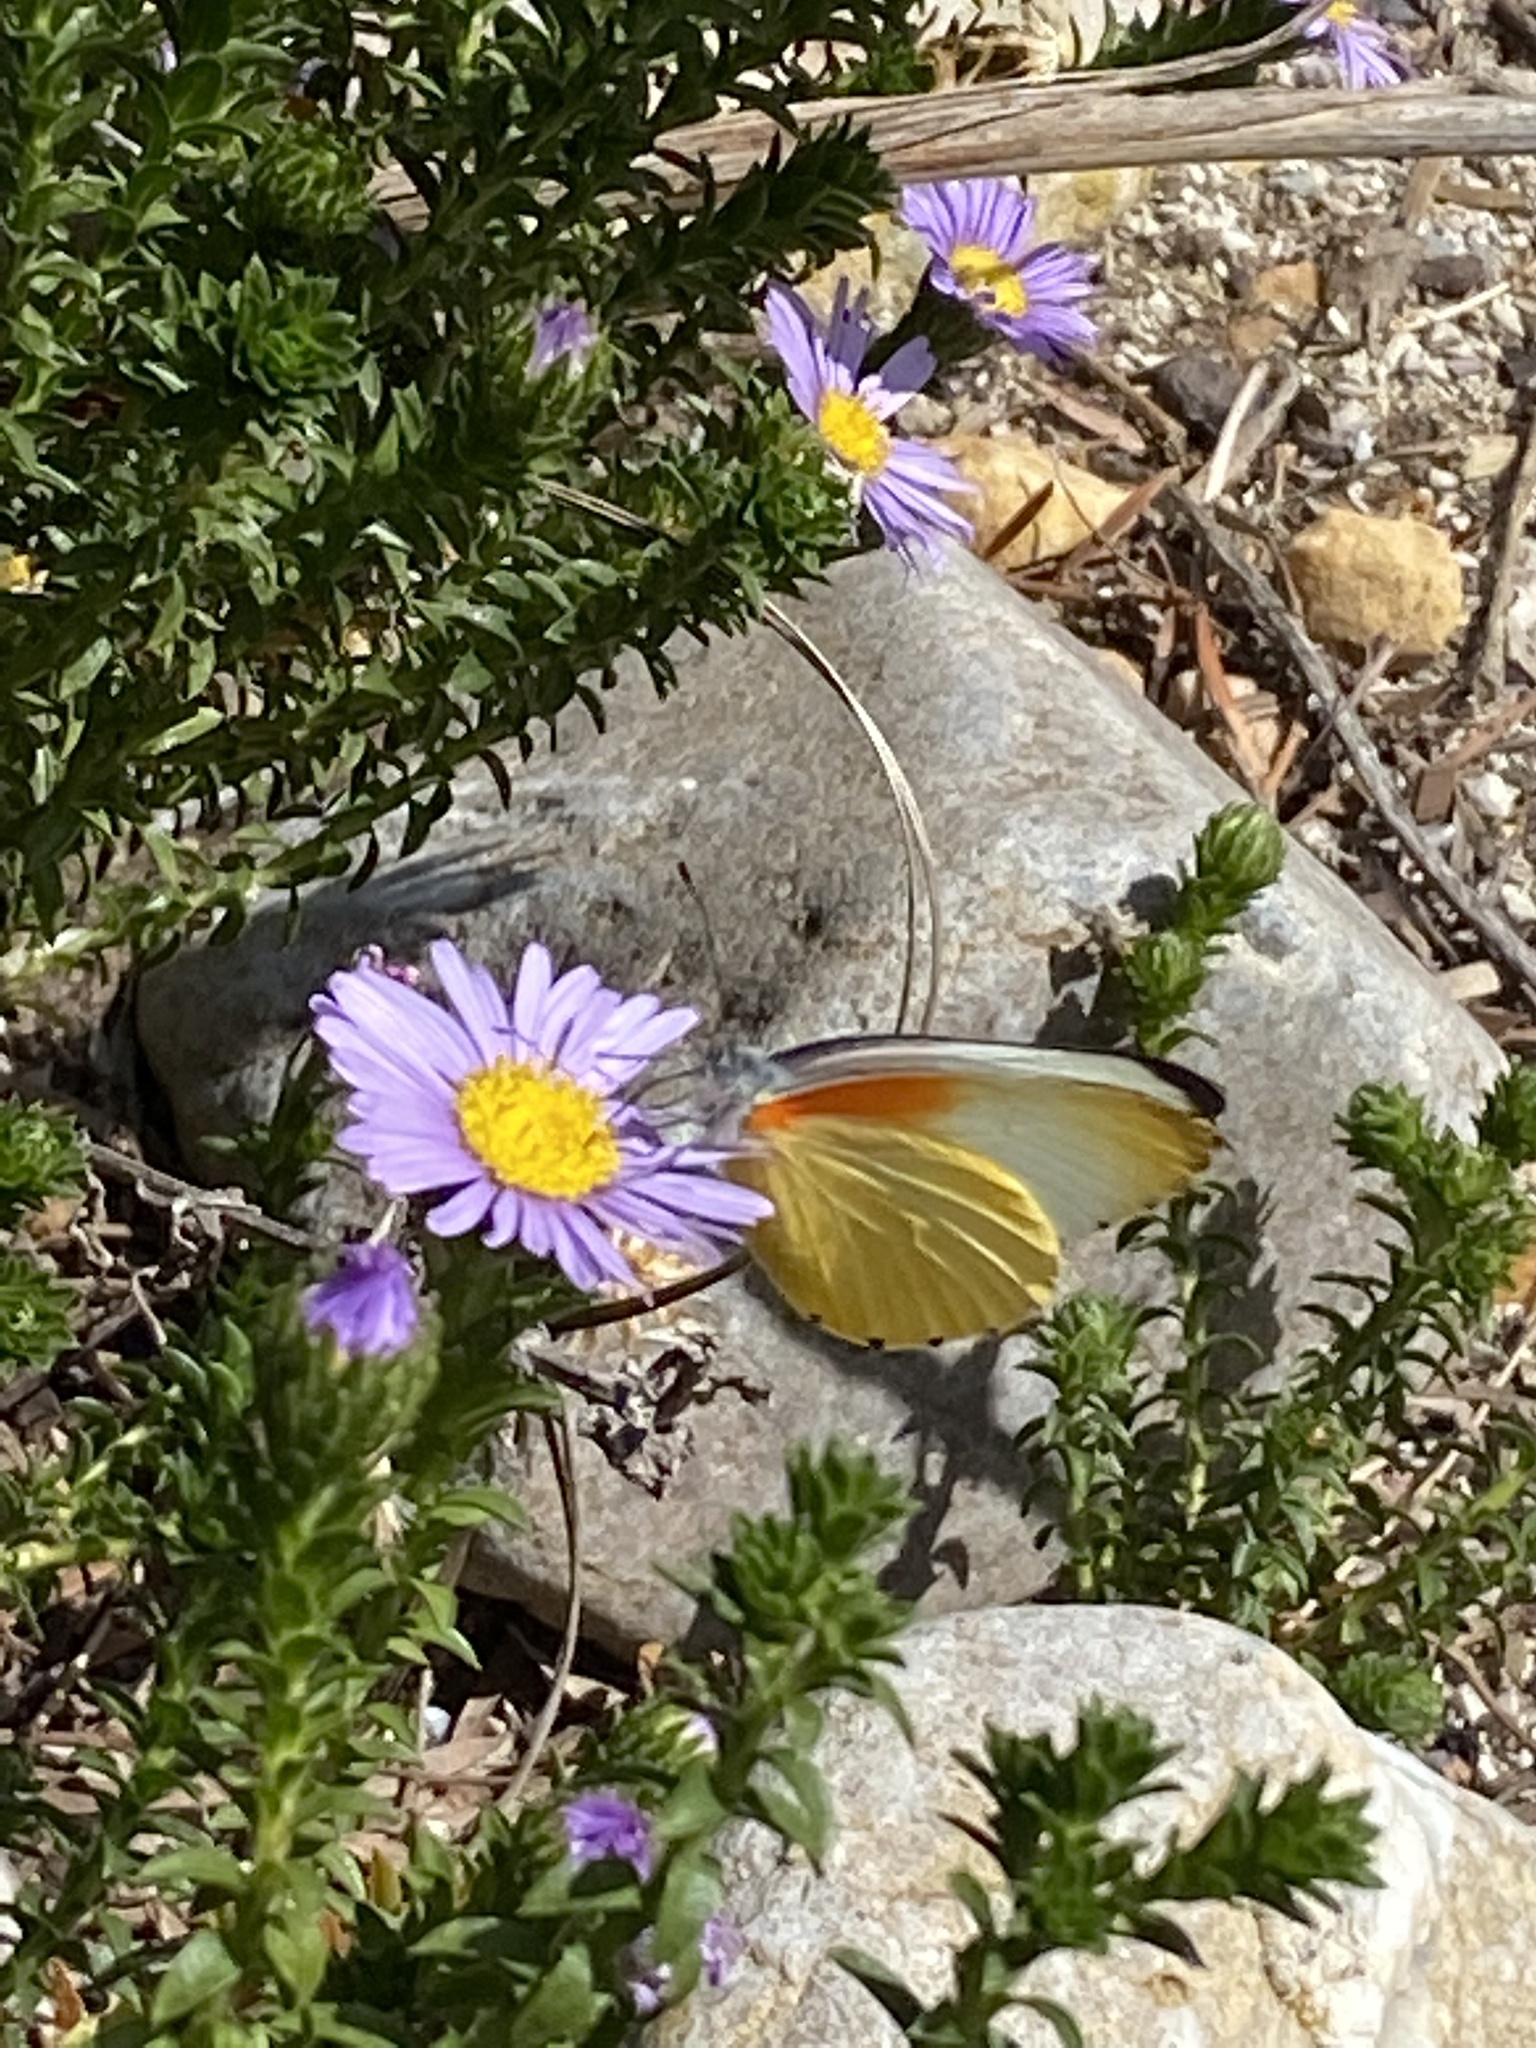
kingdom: Animalia
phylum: Arthropoda
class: Insecta
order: Lepidoptera
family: Pieridae
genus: Mylothris
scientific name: Mylothris agathina
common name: Eastern dotted border
